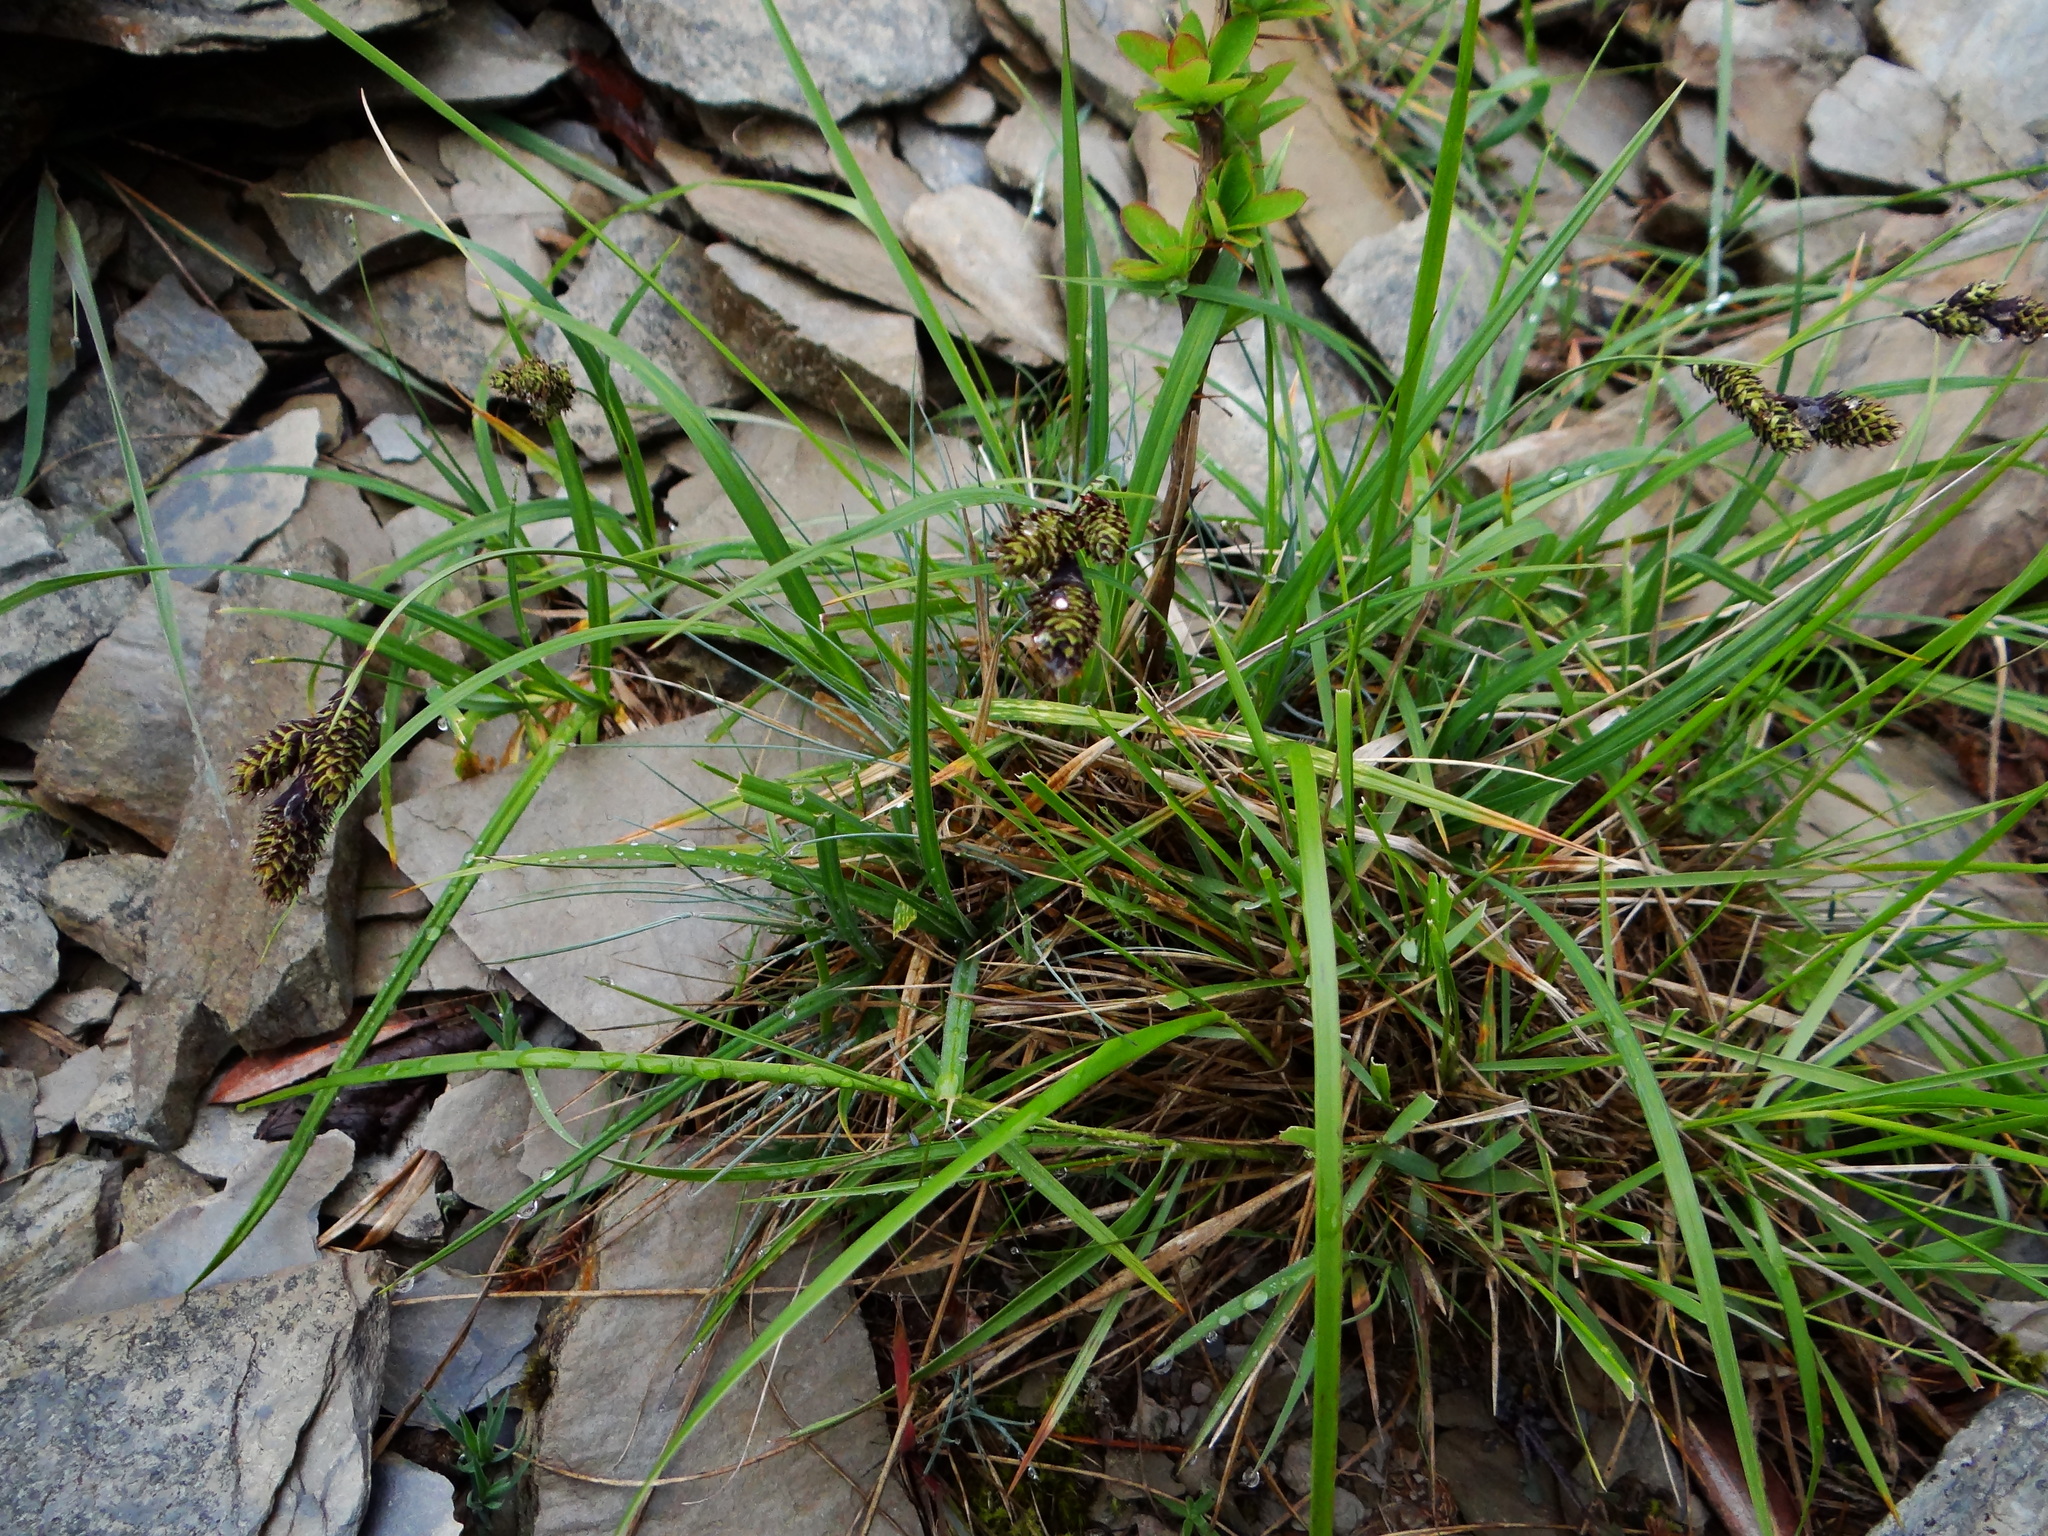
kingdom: Plantae
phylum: Tracheophyta
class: Liliopsida
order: Poales
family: Cyperaceae
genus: Carex
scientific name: Carex atrata
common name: Black alpine sedge
